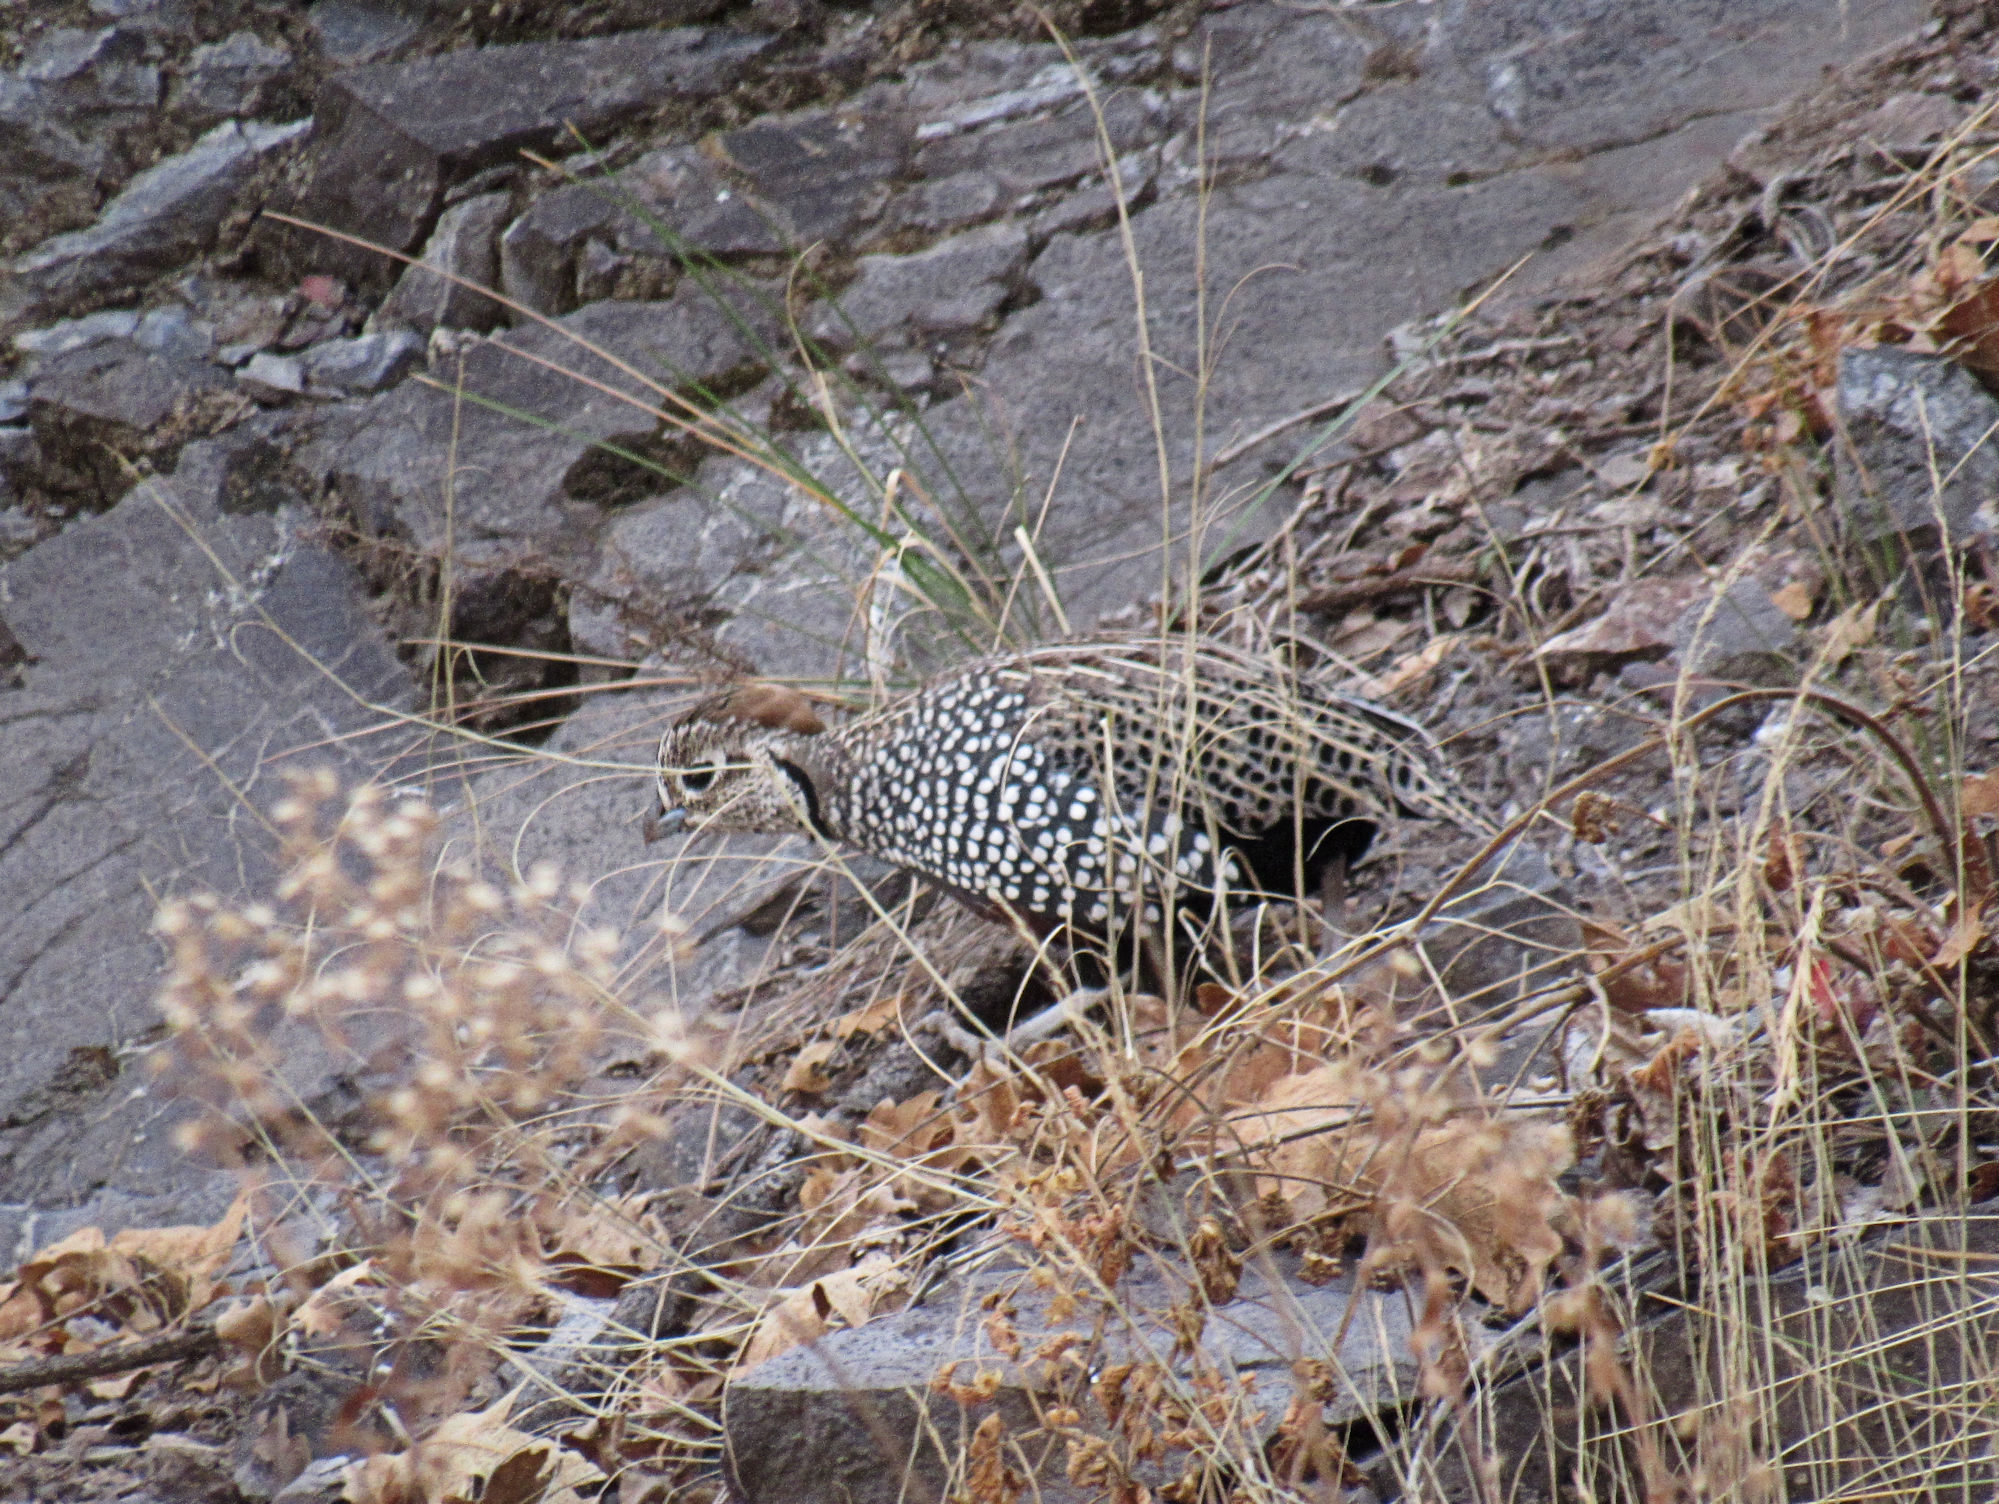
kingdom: Animalia
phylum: Chordata
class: Aves
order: Galliformes
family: Odontophoridae
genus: Cyrtonyx
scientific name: Cyrtonyx montezumae
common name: Montezuma quail
